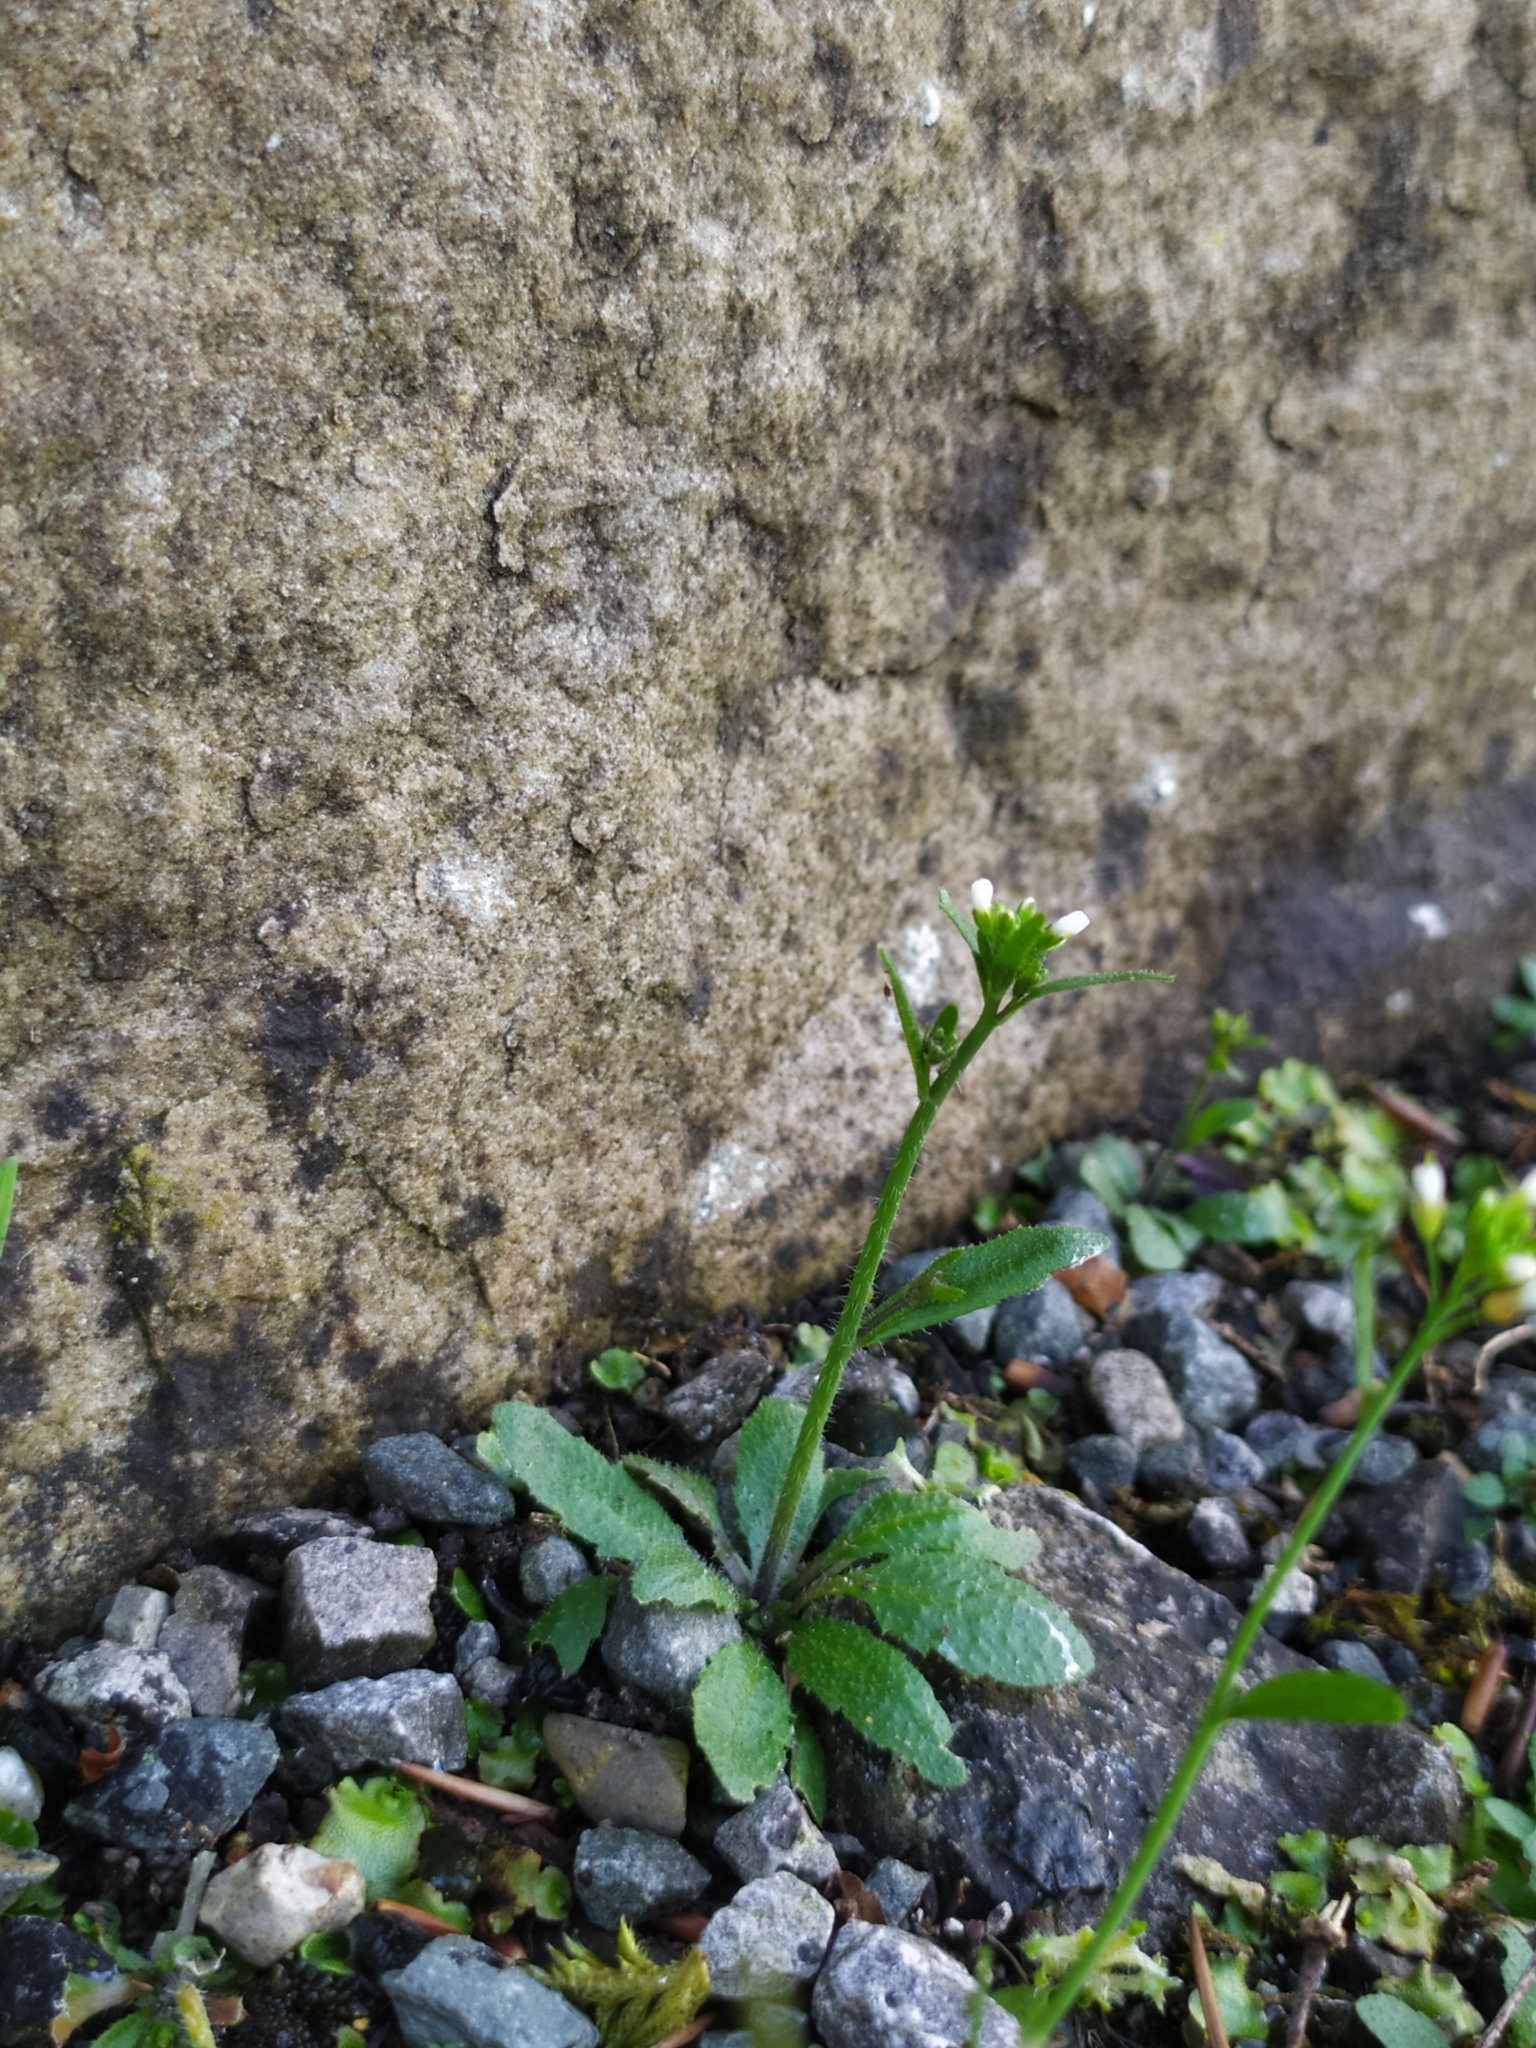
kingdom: Plantae
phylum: Tracheophyta
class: Magnoliopsida
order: Brassicales
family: Brassicaceae
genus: Arabidopsis
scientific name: Arabidopsis thaliana
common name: Thale cress
